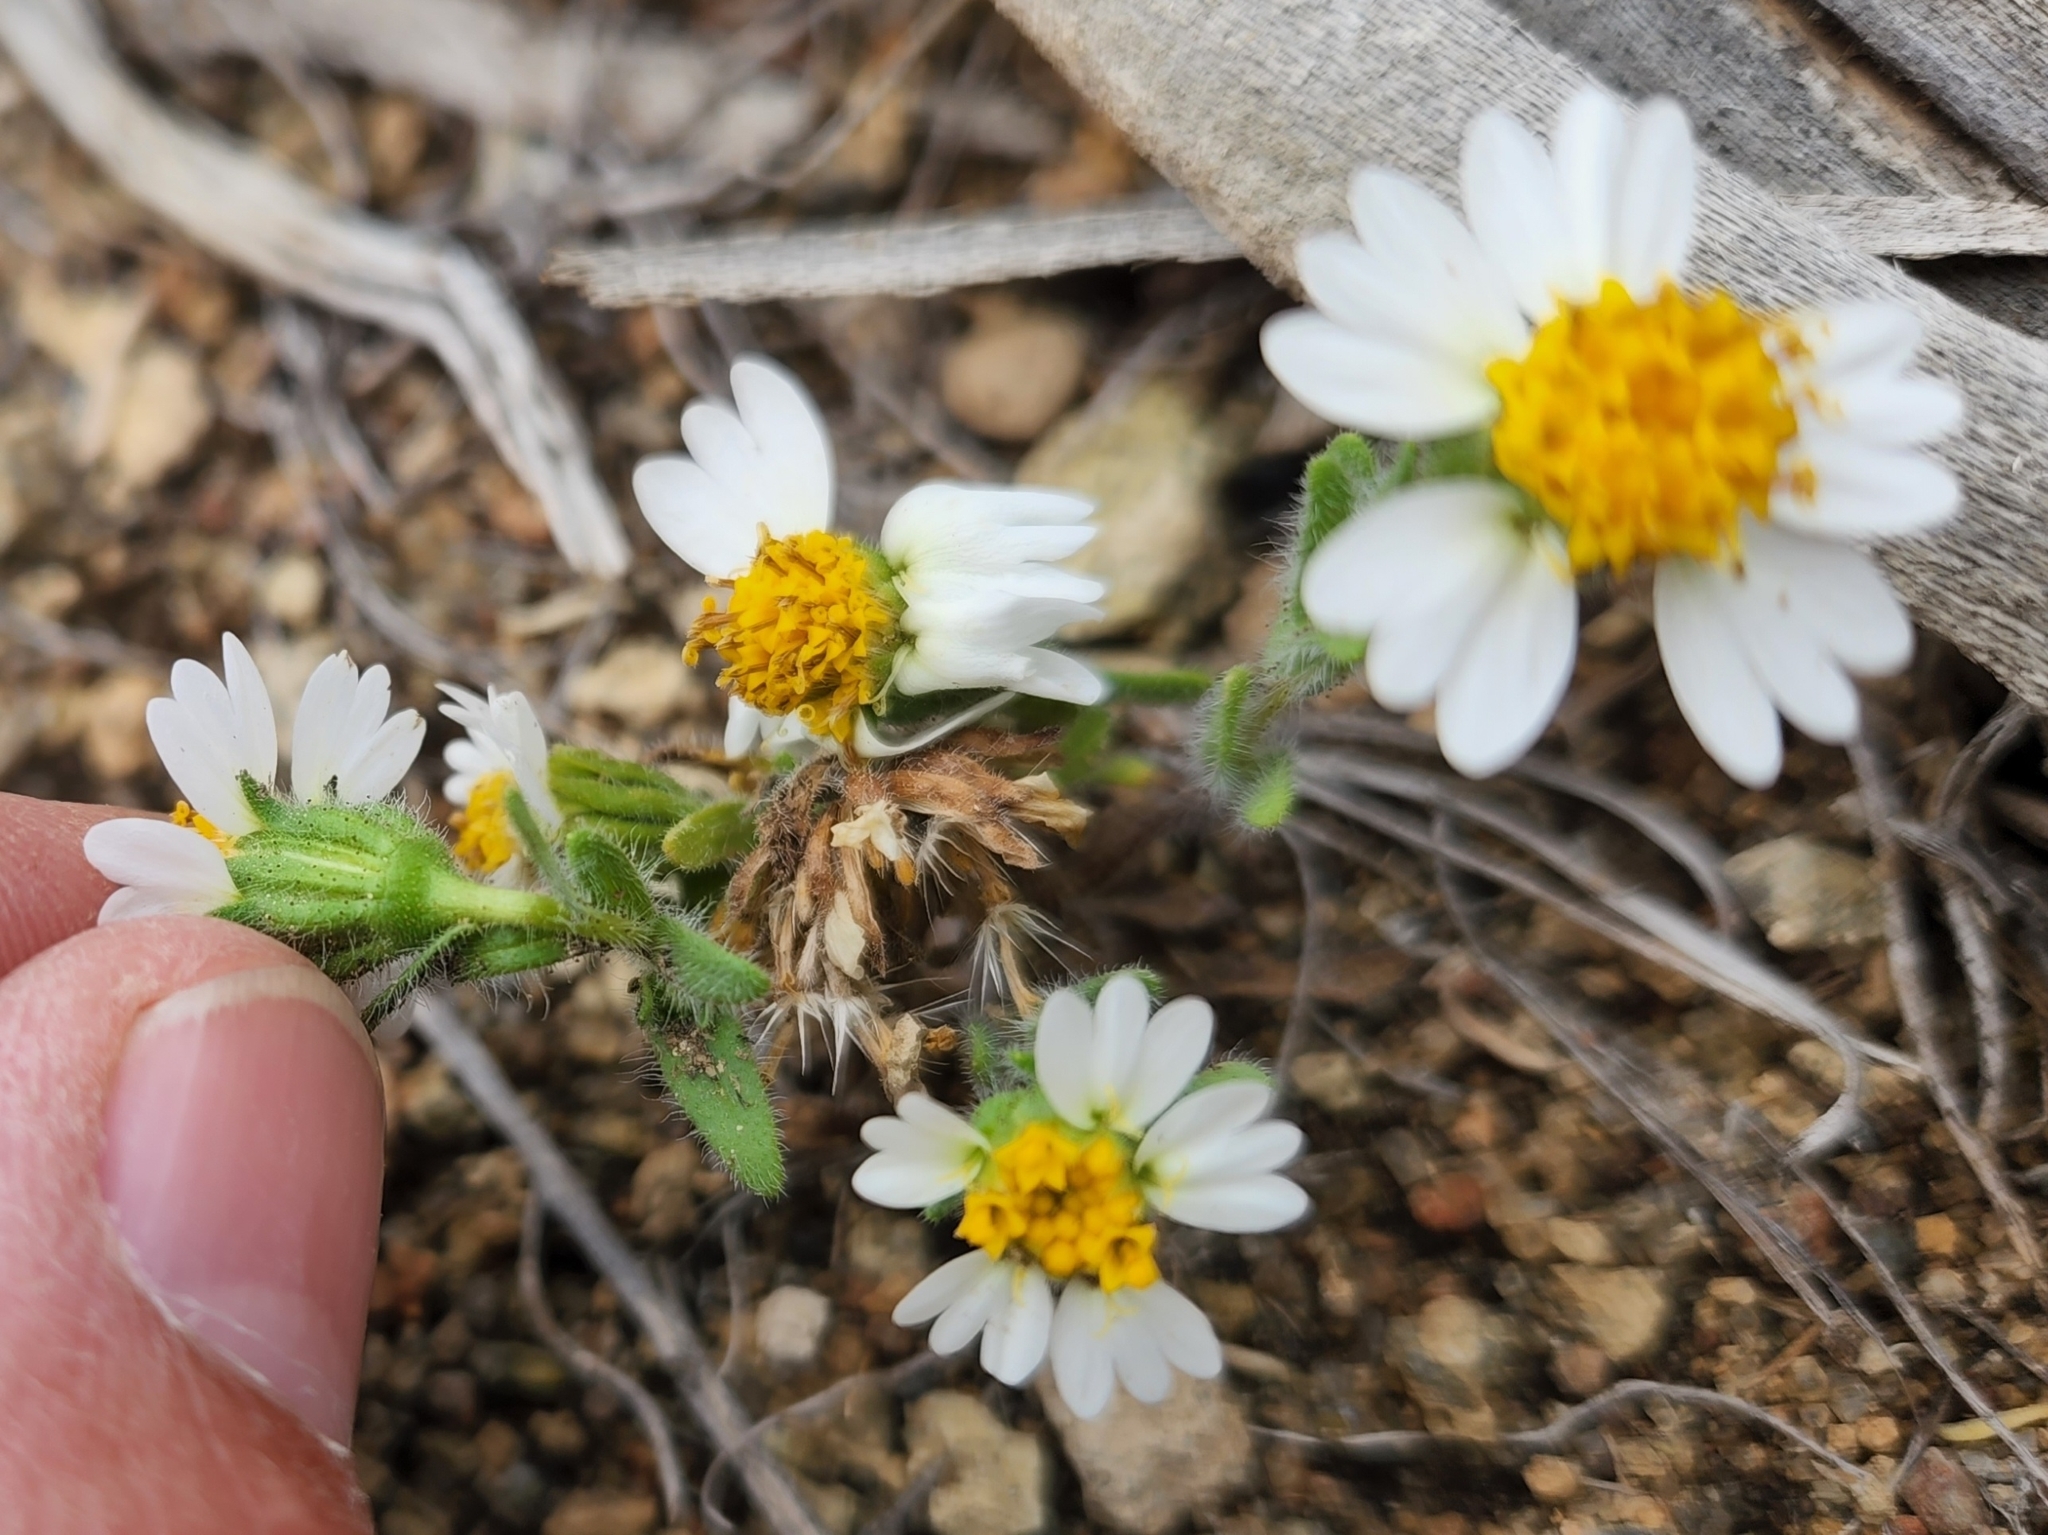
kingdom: Plantae
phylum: Tracheophyta
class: Magnoliopsida
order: Asterales
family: Asteraceae
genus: Layia
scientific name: Layia glandulosa
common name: White layia
